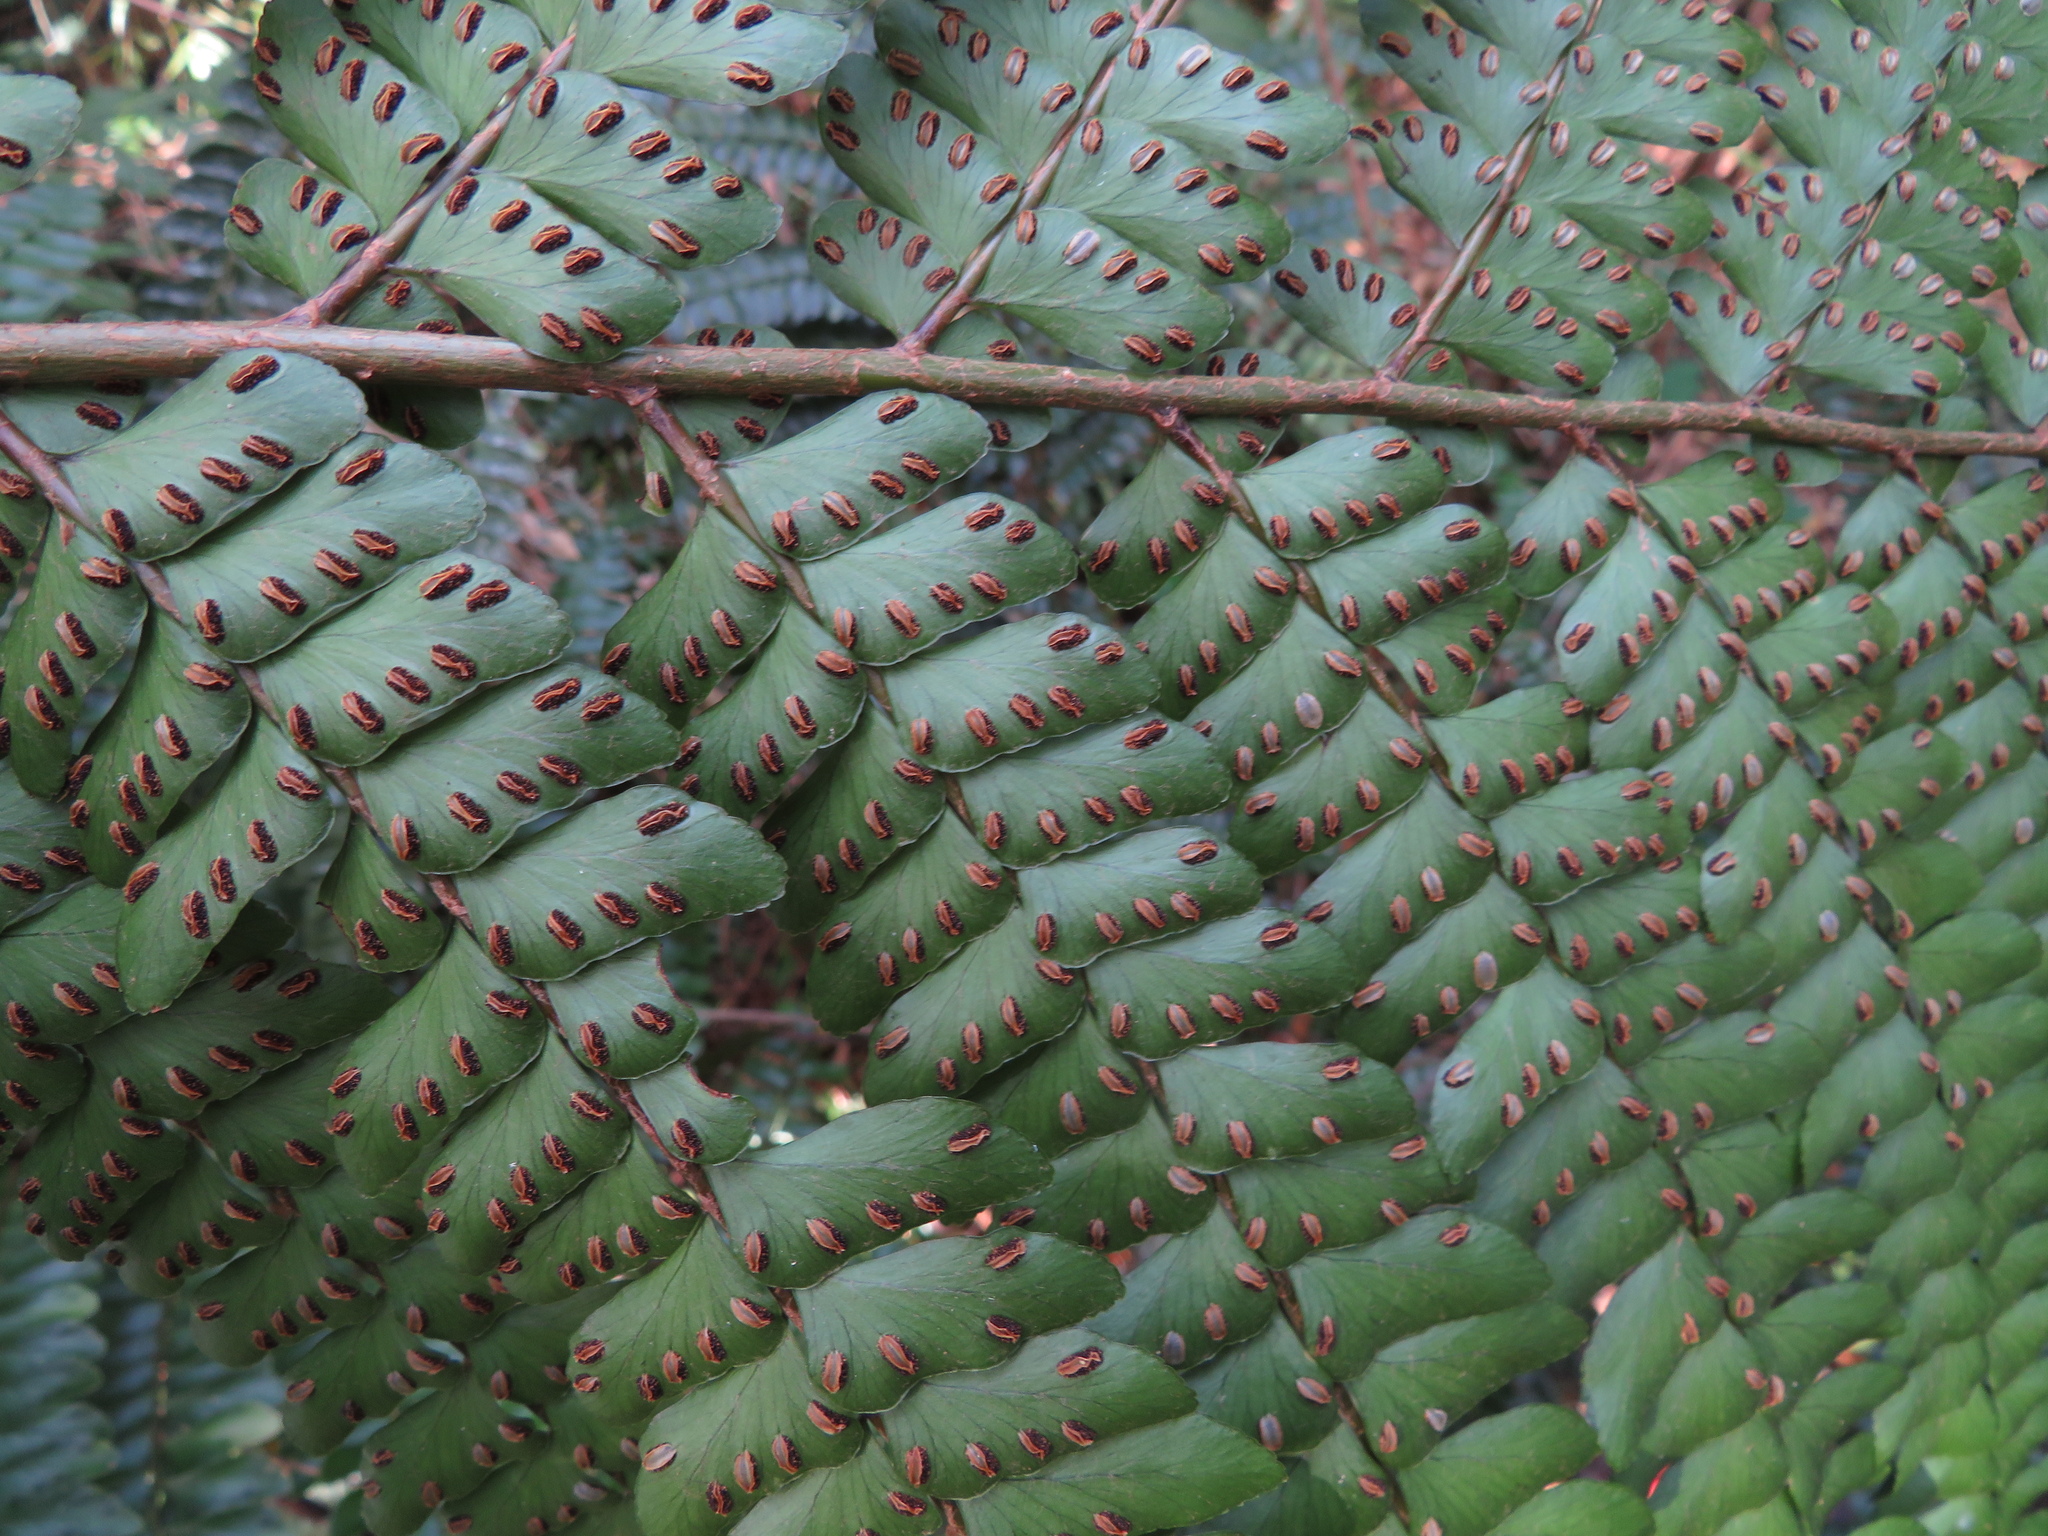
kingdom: Plantae
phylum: Tracheophyta
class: Polypodiopsida
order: Polypodiales
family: Didymochlaenaceae
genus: Didymochlaena
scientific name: Didymochlaena truncatula
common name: Mahogany fern
